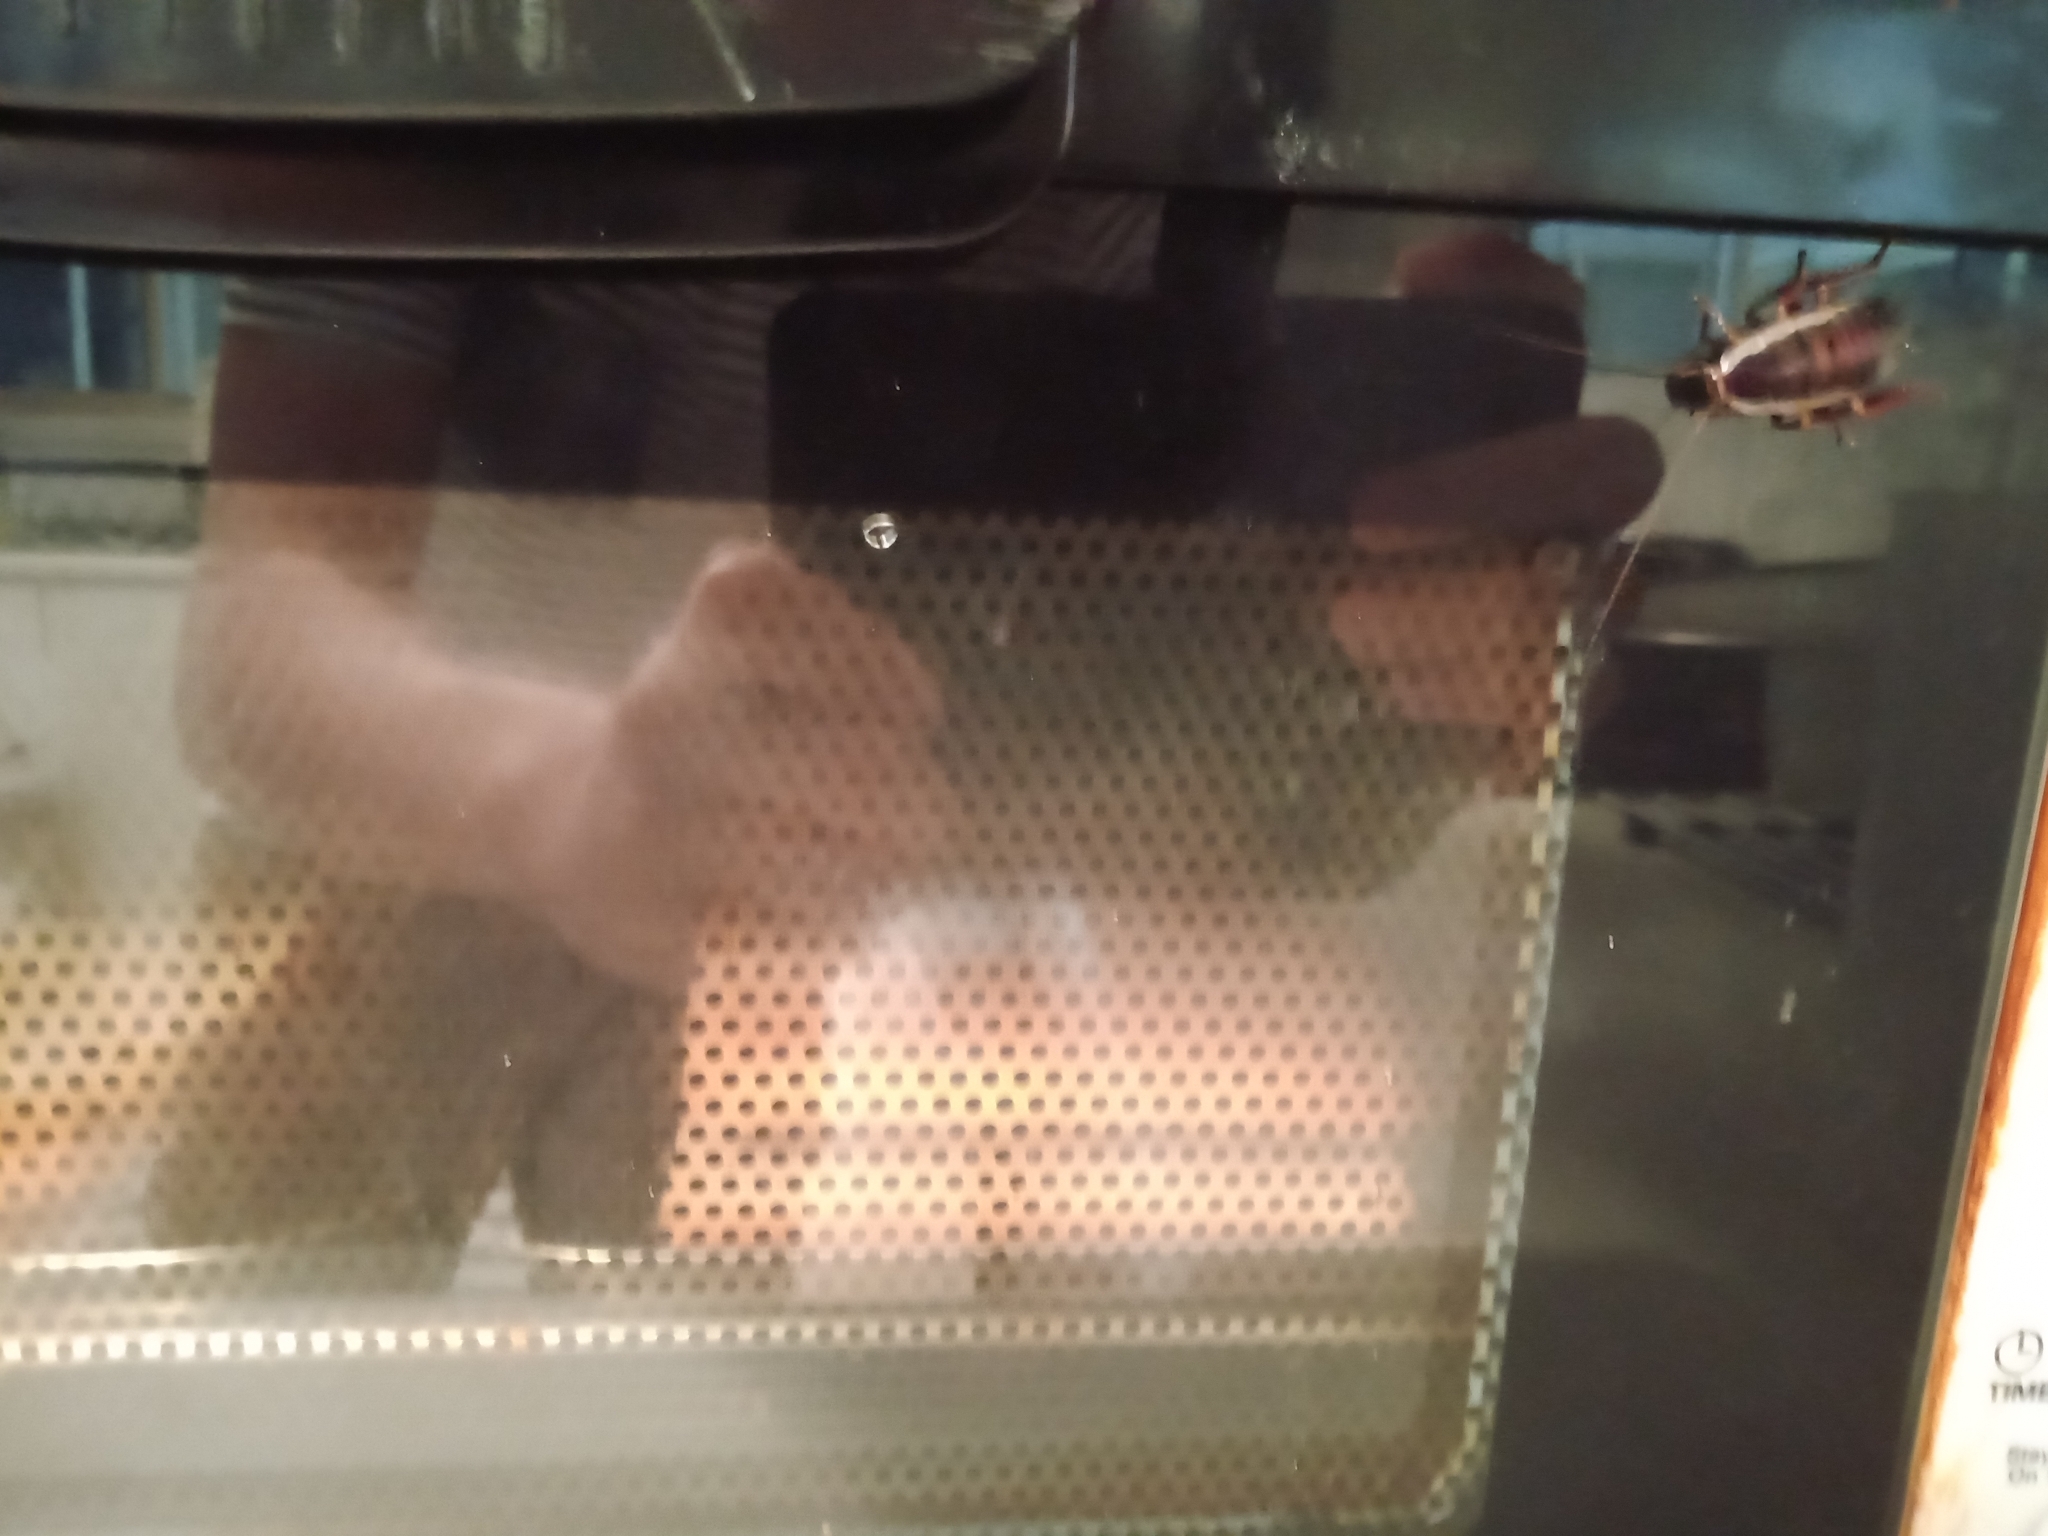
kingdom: Animalia
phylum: Arthropoda
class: Insecta
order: Blattodea
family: Blattidae
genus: Drymaplaneta
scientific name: Drymaplaneta communis
